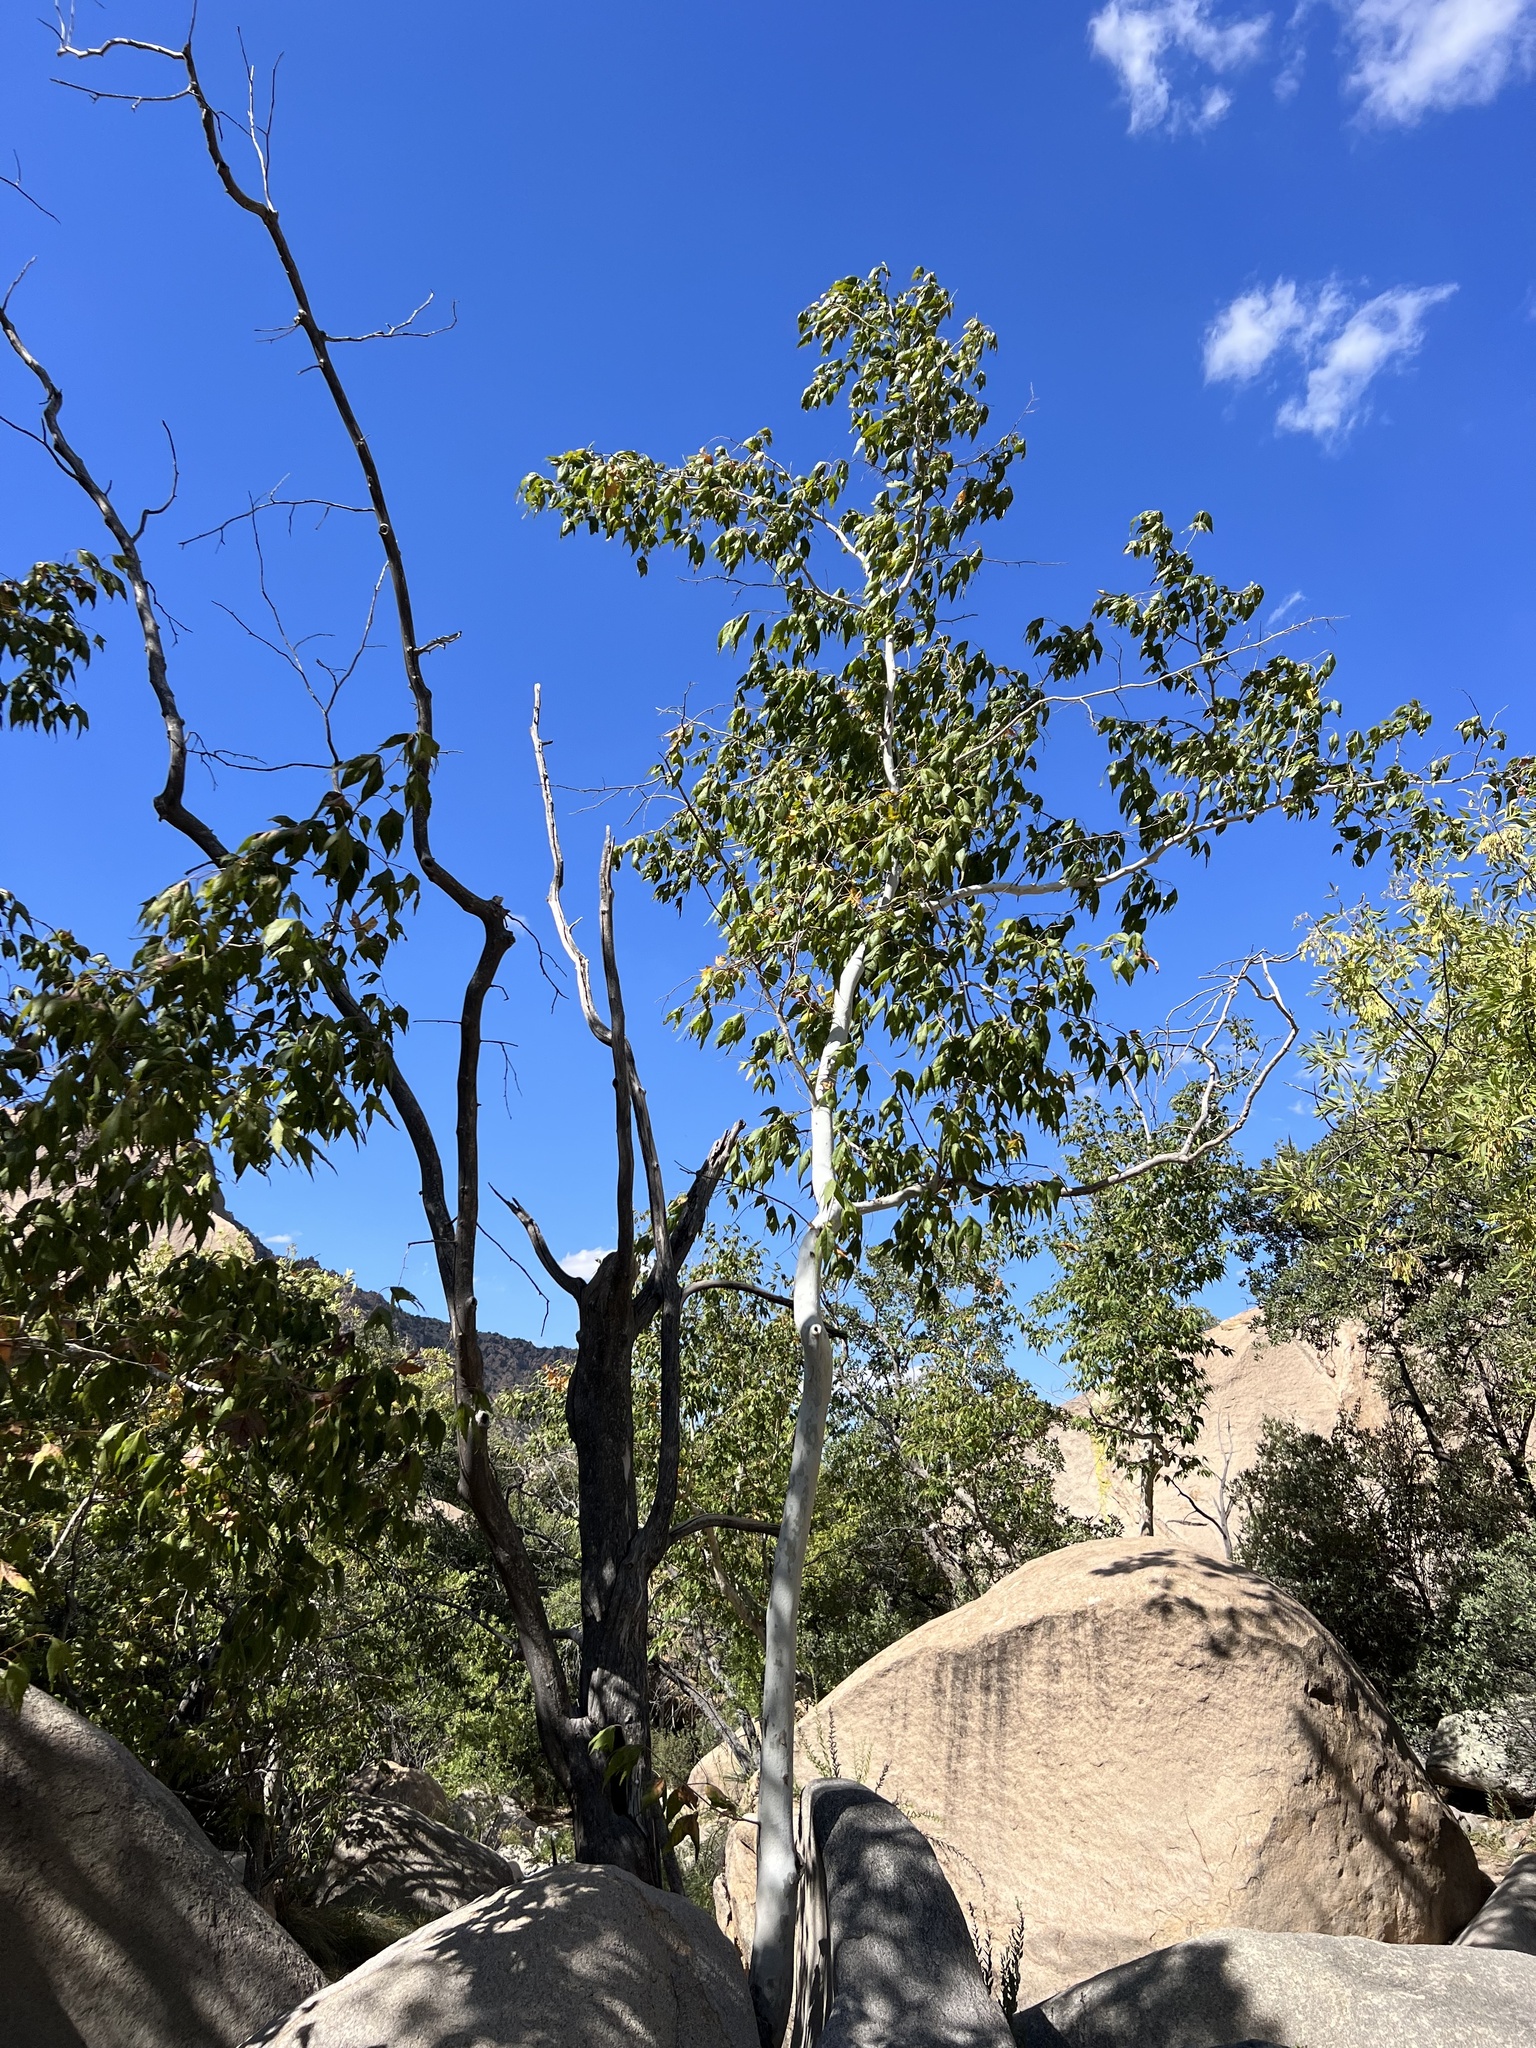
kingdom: Plantae
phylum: Tracheophyta
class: Magnoliopsida
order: Proteales
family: Platanaceae
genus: Platanus
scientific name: Platanus wrightii
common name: Arizona sycamore
